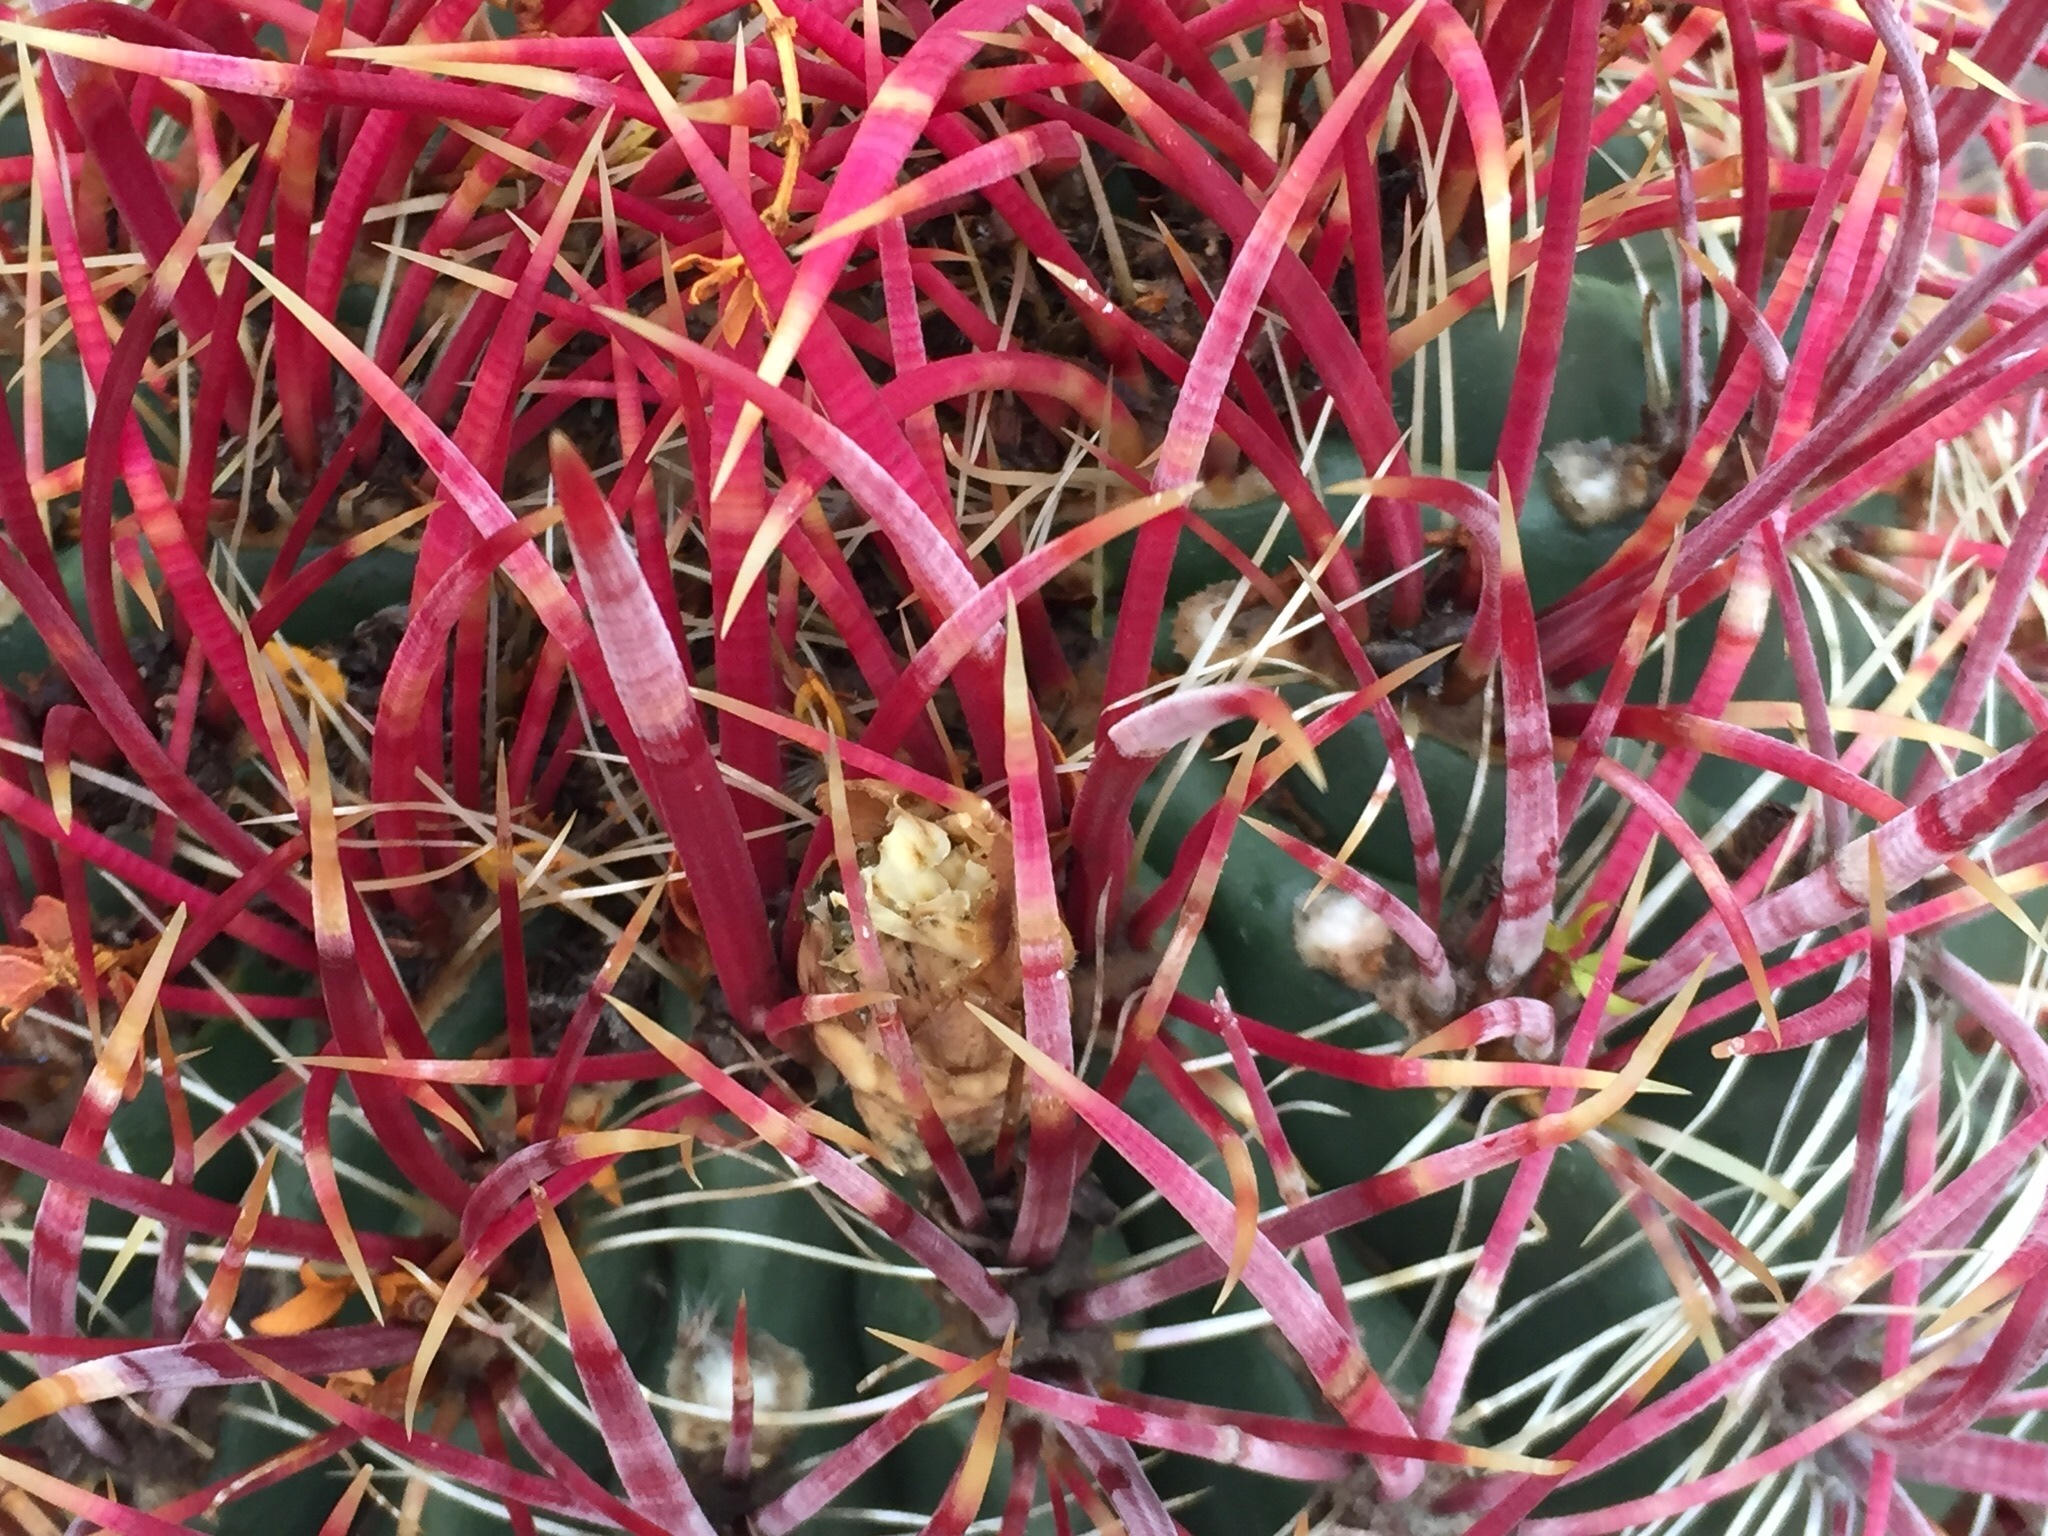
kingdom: Plantae
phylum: Tracheophyta
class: Magnoliopsida
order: Caryophyllales
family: Cactaceae
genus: Ferocactus
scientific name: Ferocactus cylindraceus
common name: California barrel cactus
